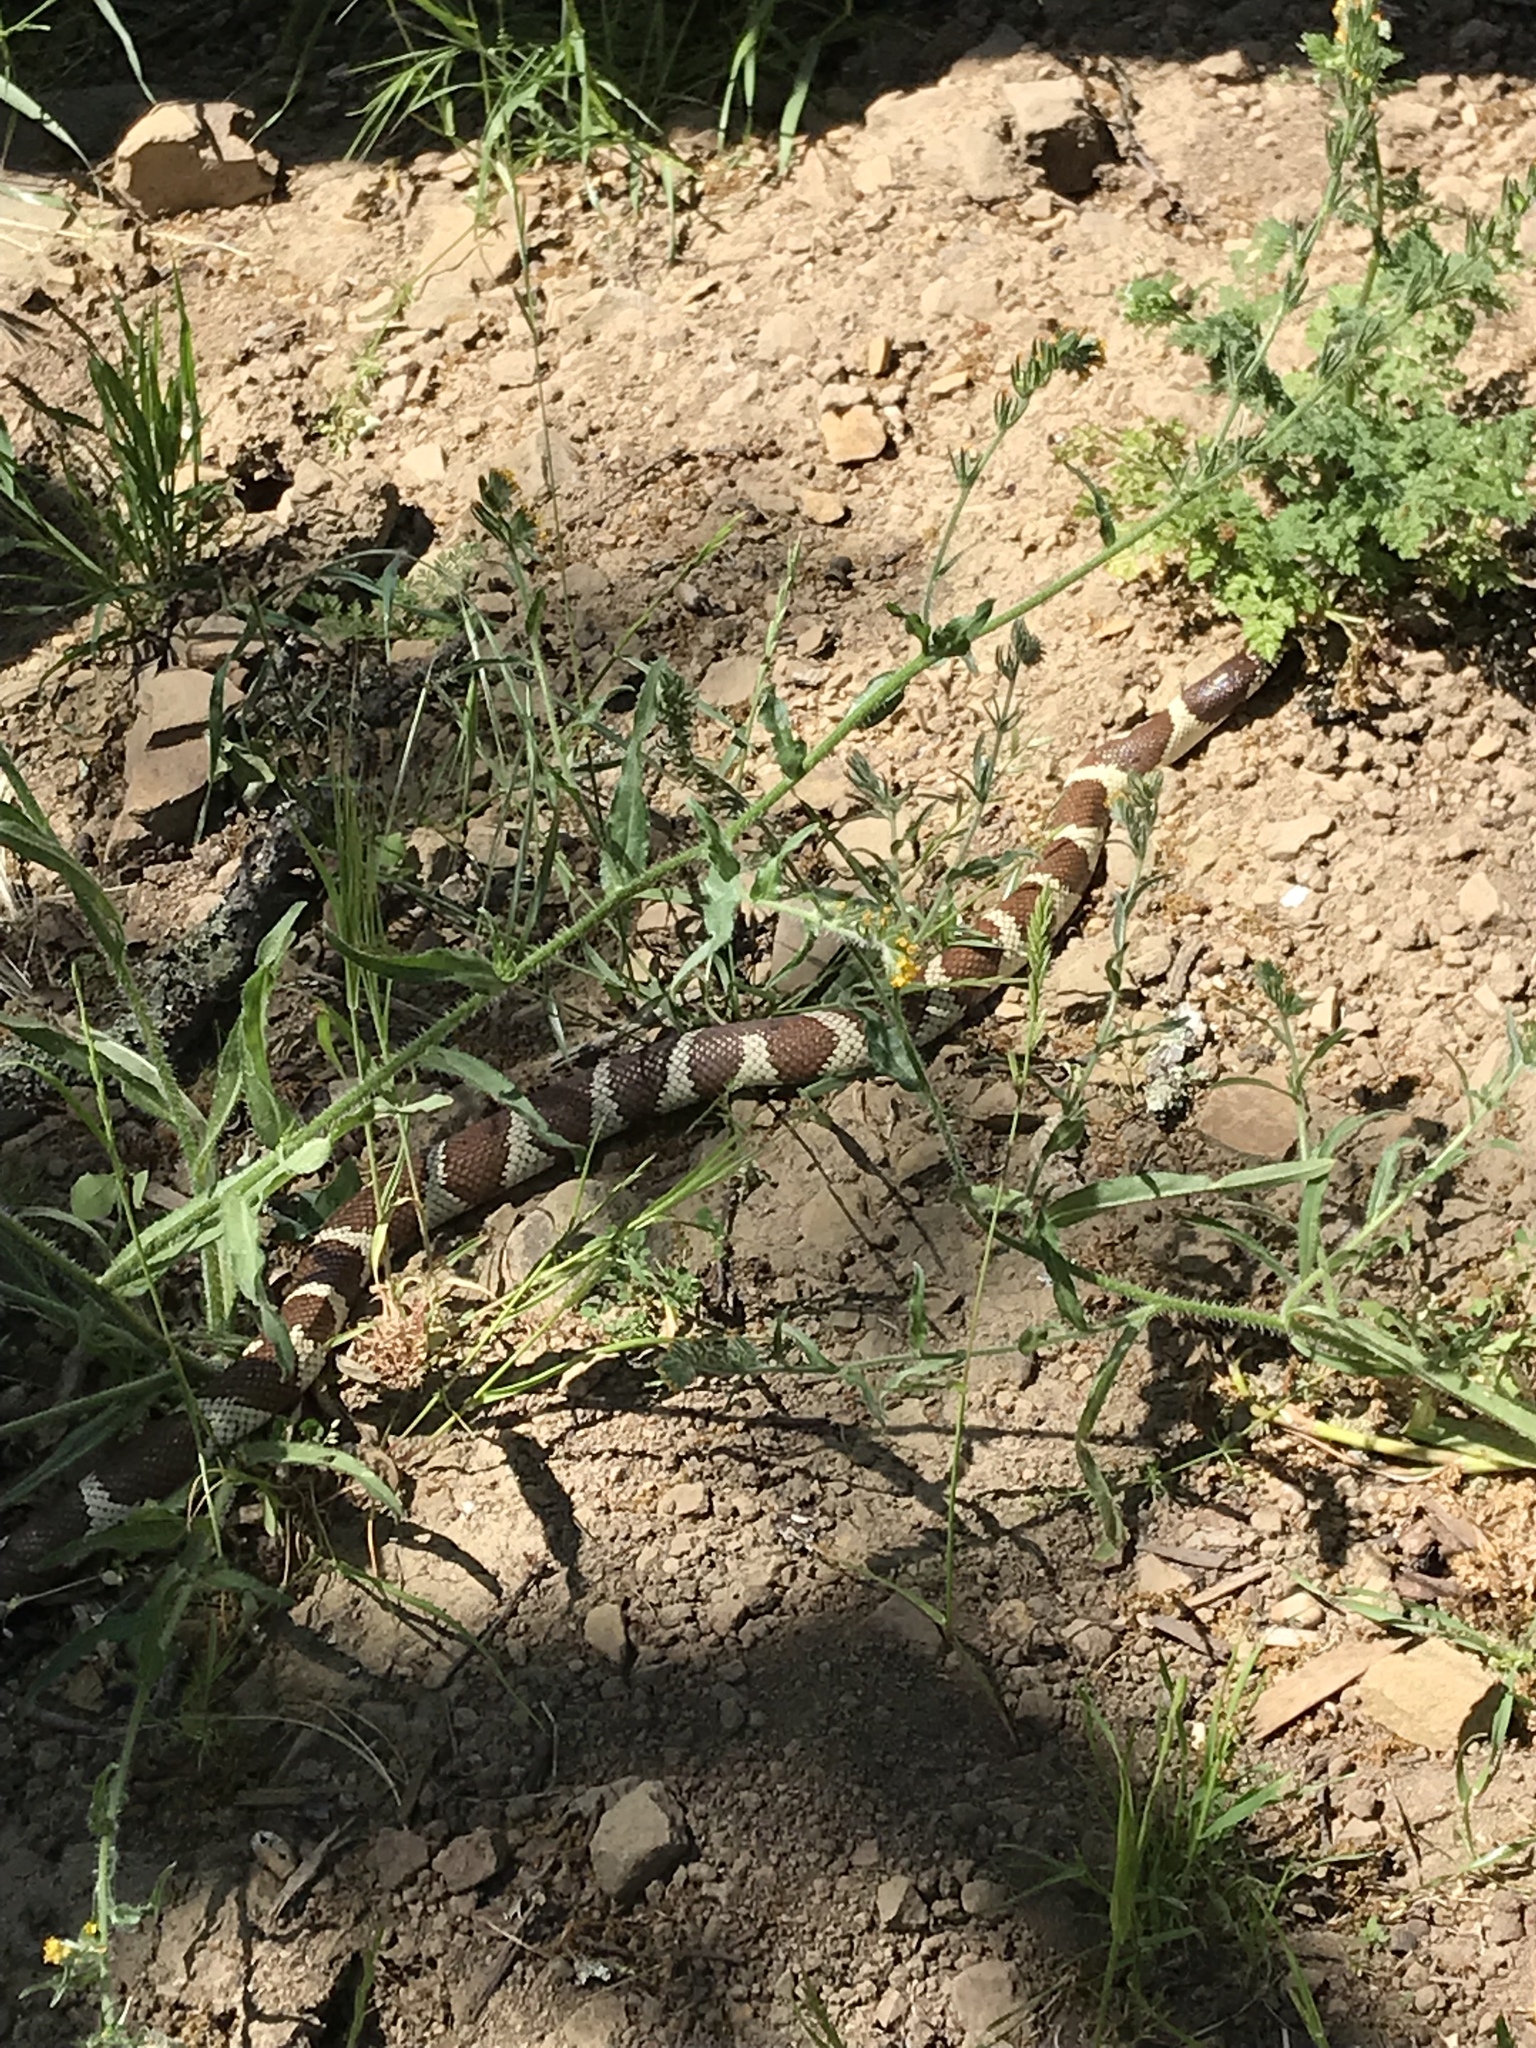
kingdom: Animalia
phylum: Chordata
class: Squamata
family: Colubridae
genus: Lampropeltis
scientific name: Lampropeltis californiae
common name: California kingsnake
